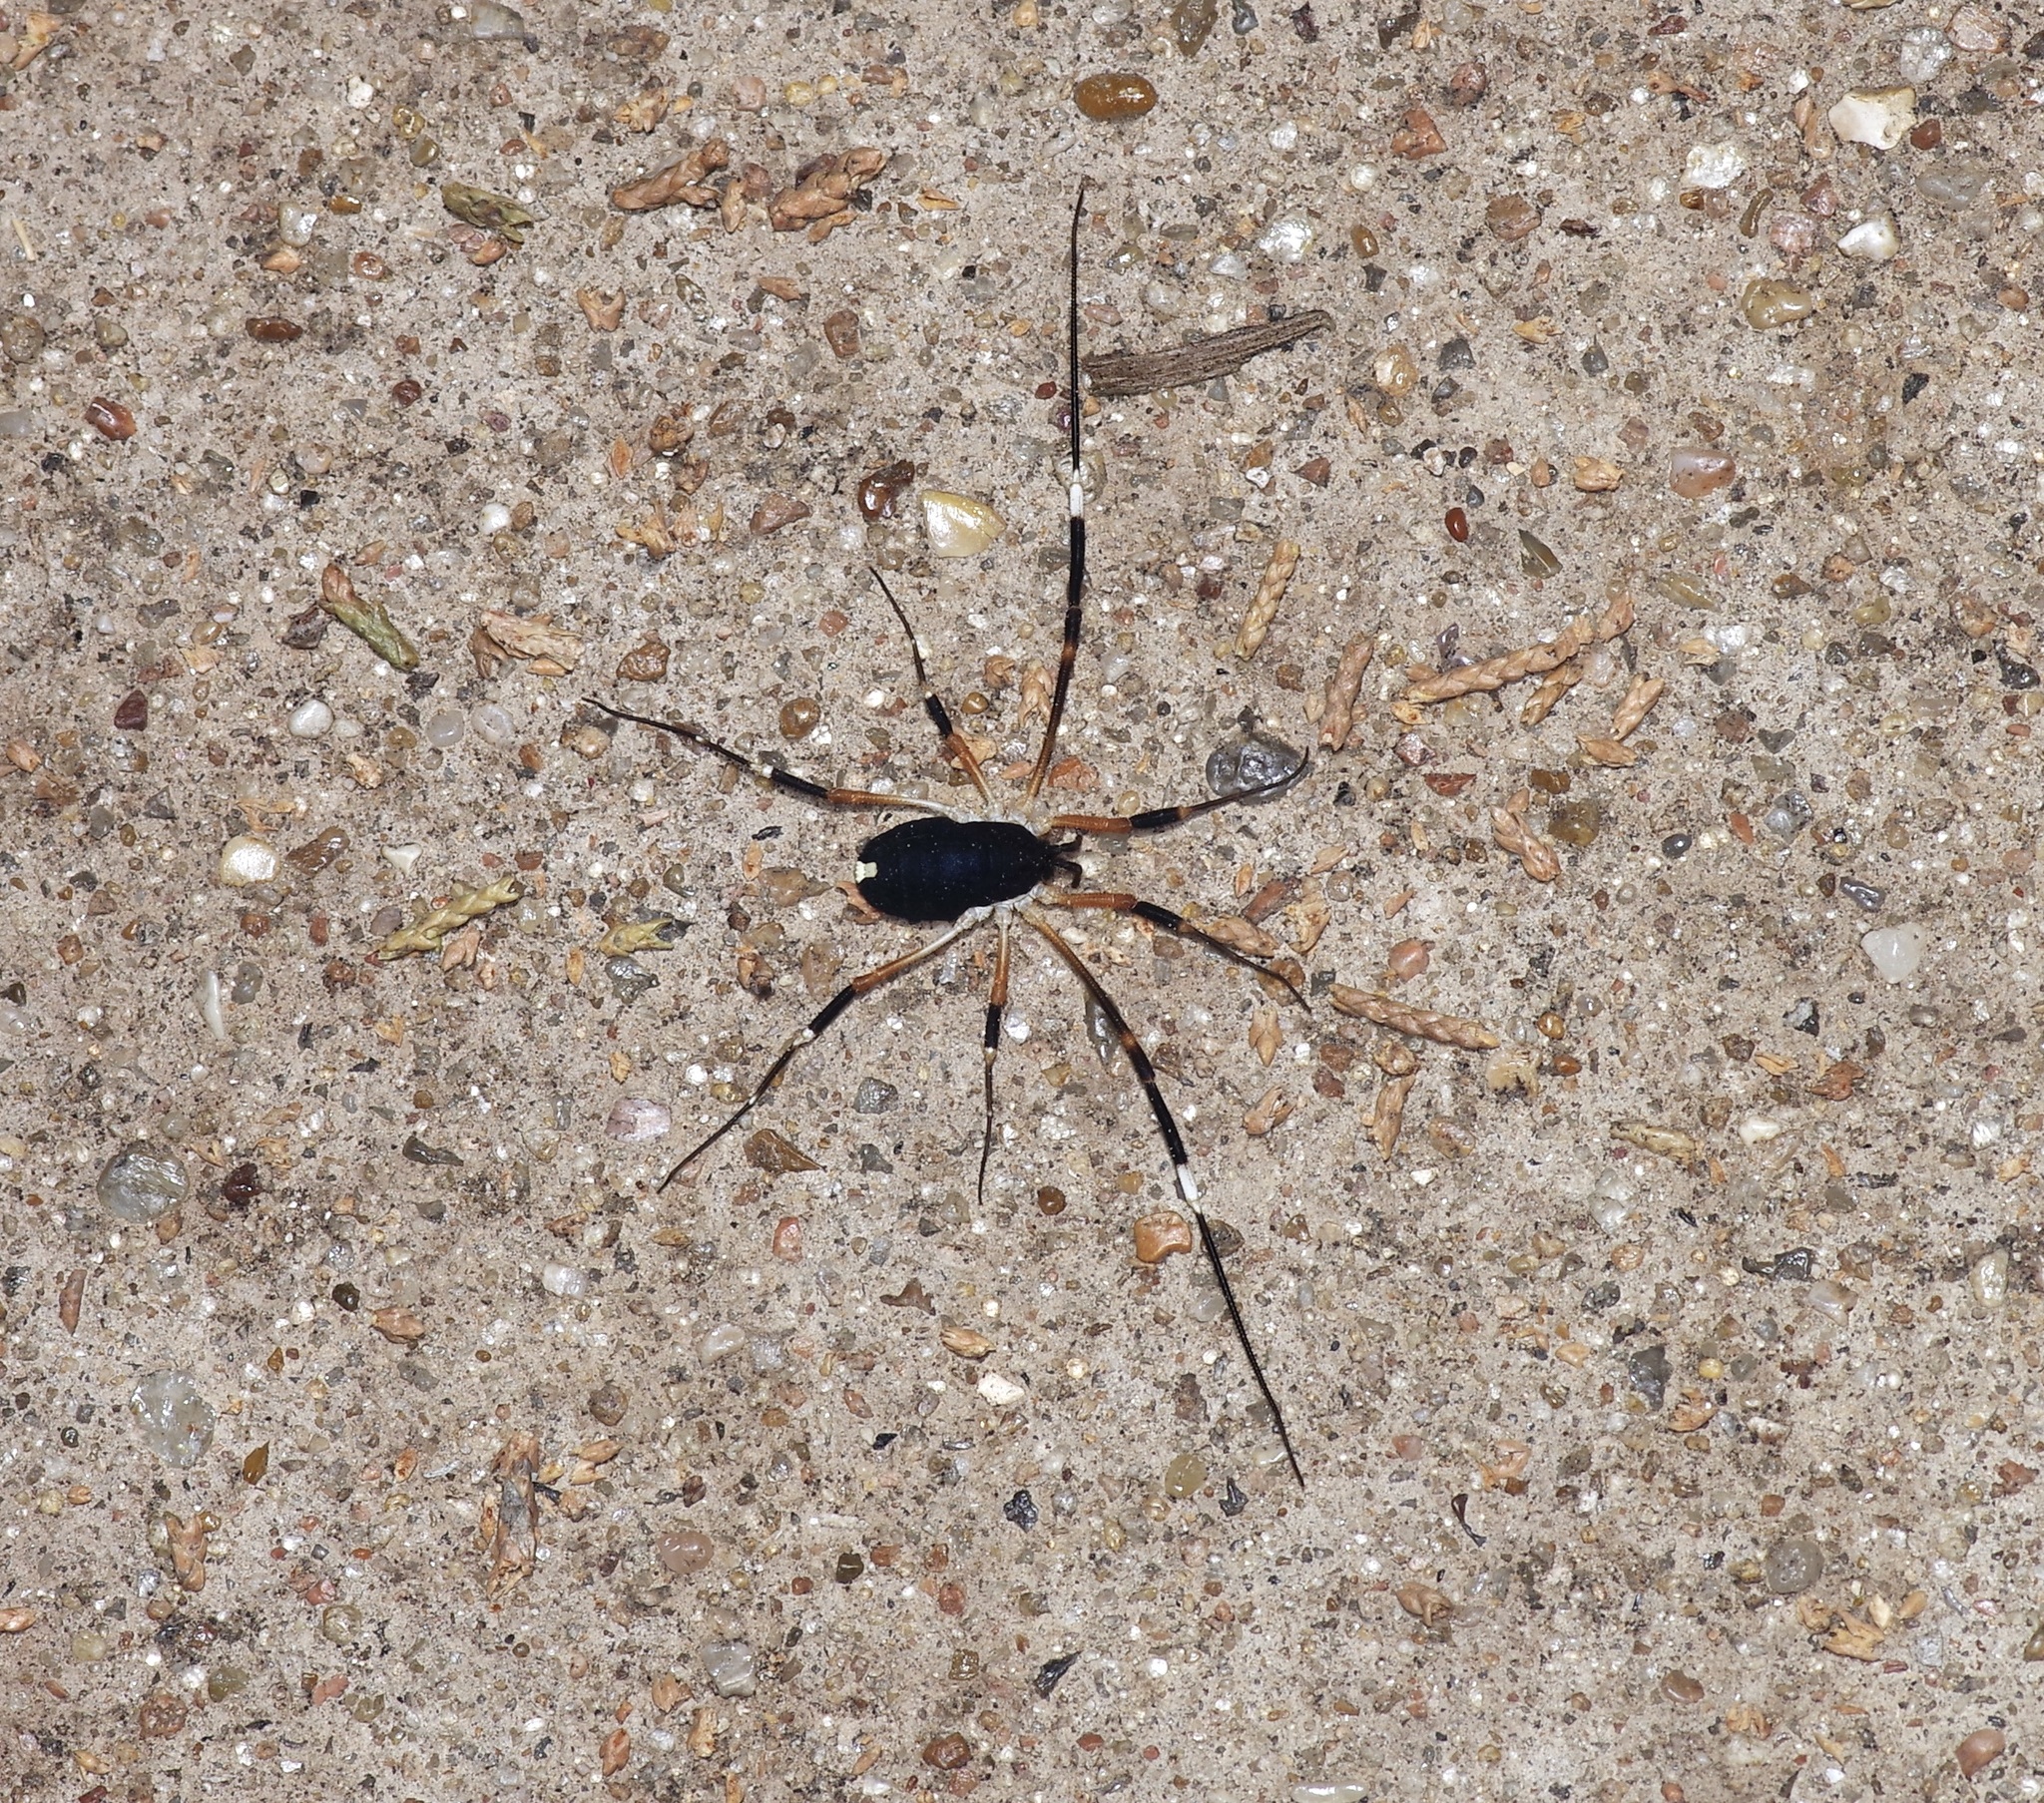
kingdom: Animalia
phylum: Arthropoda
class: Arachnida
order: Opiliones
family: Globipedidae
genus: Dalquestia
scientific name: Dalquestia formosa
